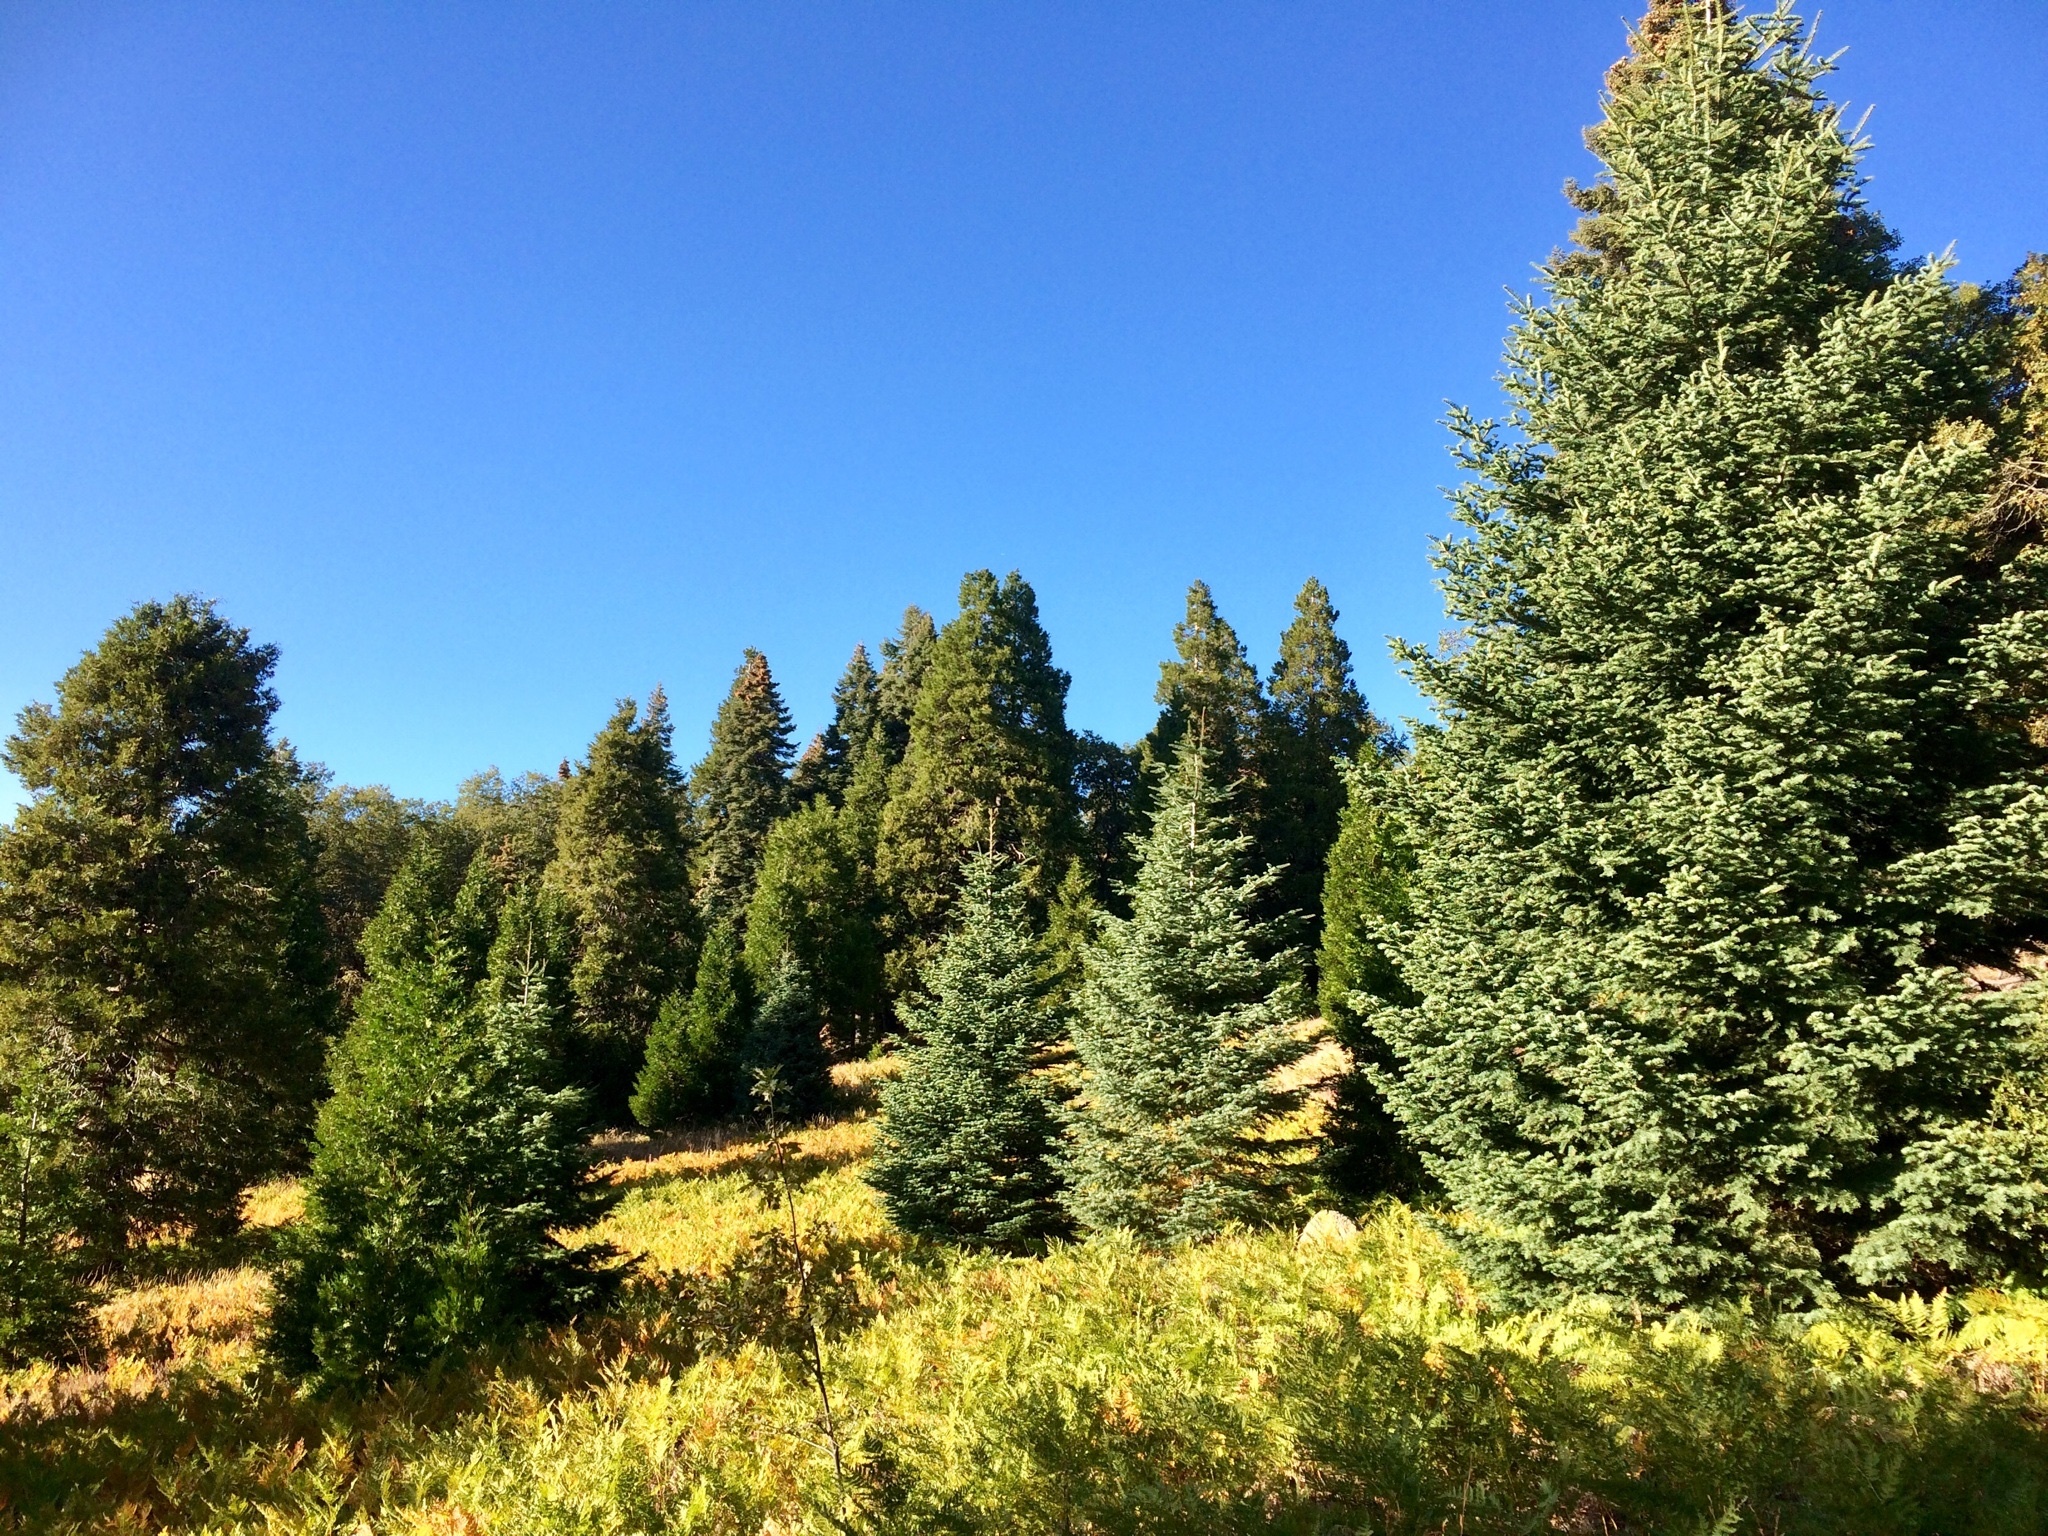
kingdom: Plantae
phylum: Tracheophyta
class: Pinopsida
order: Pinales
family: Pinaceae
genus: Abies
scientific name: Abies concolor
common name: Colorado fir
